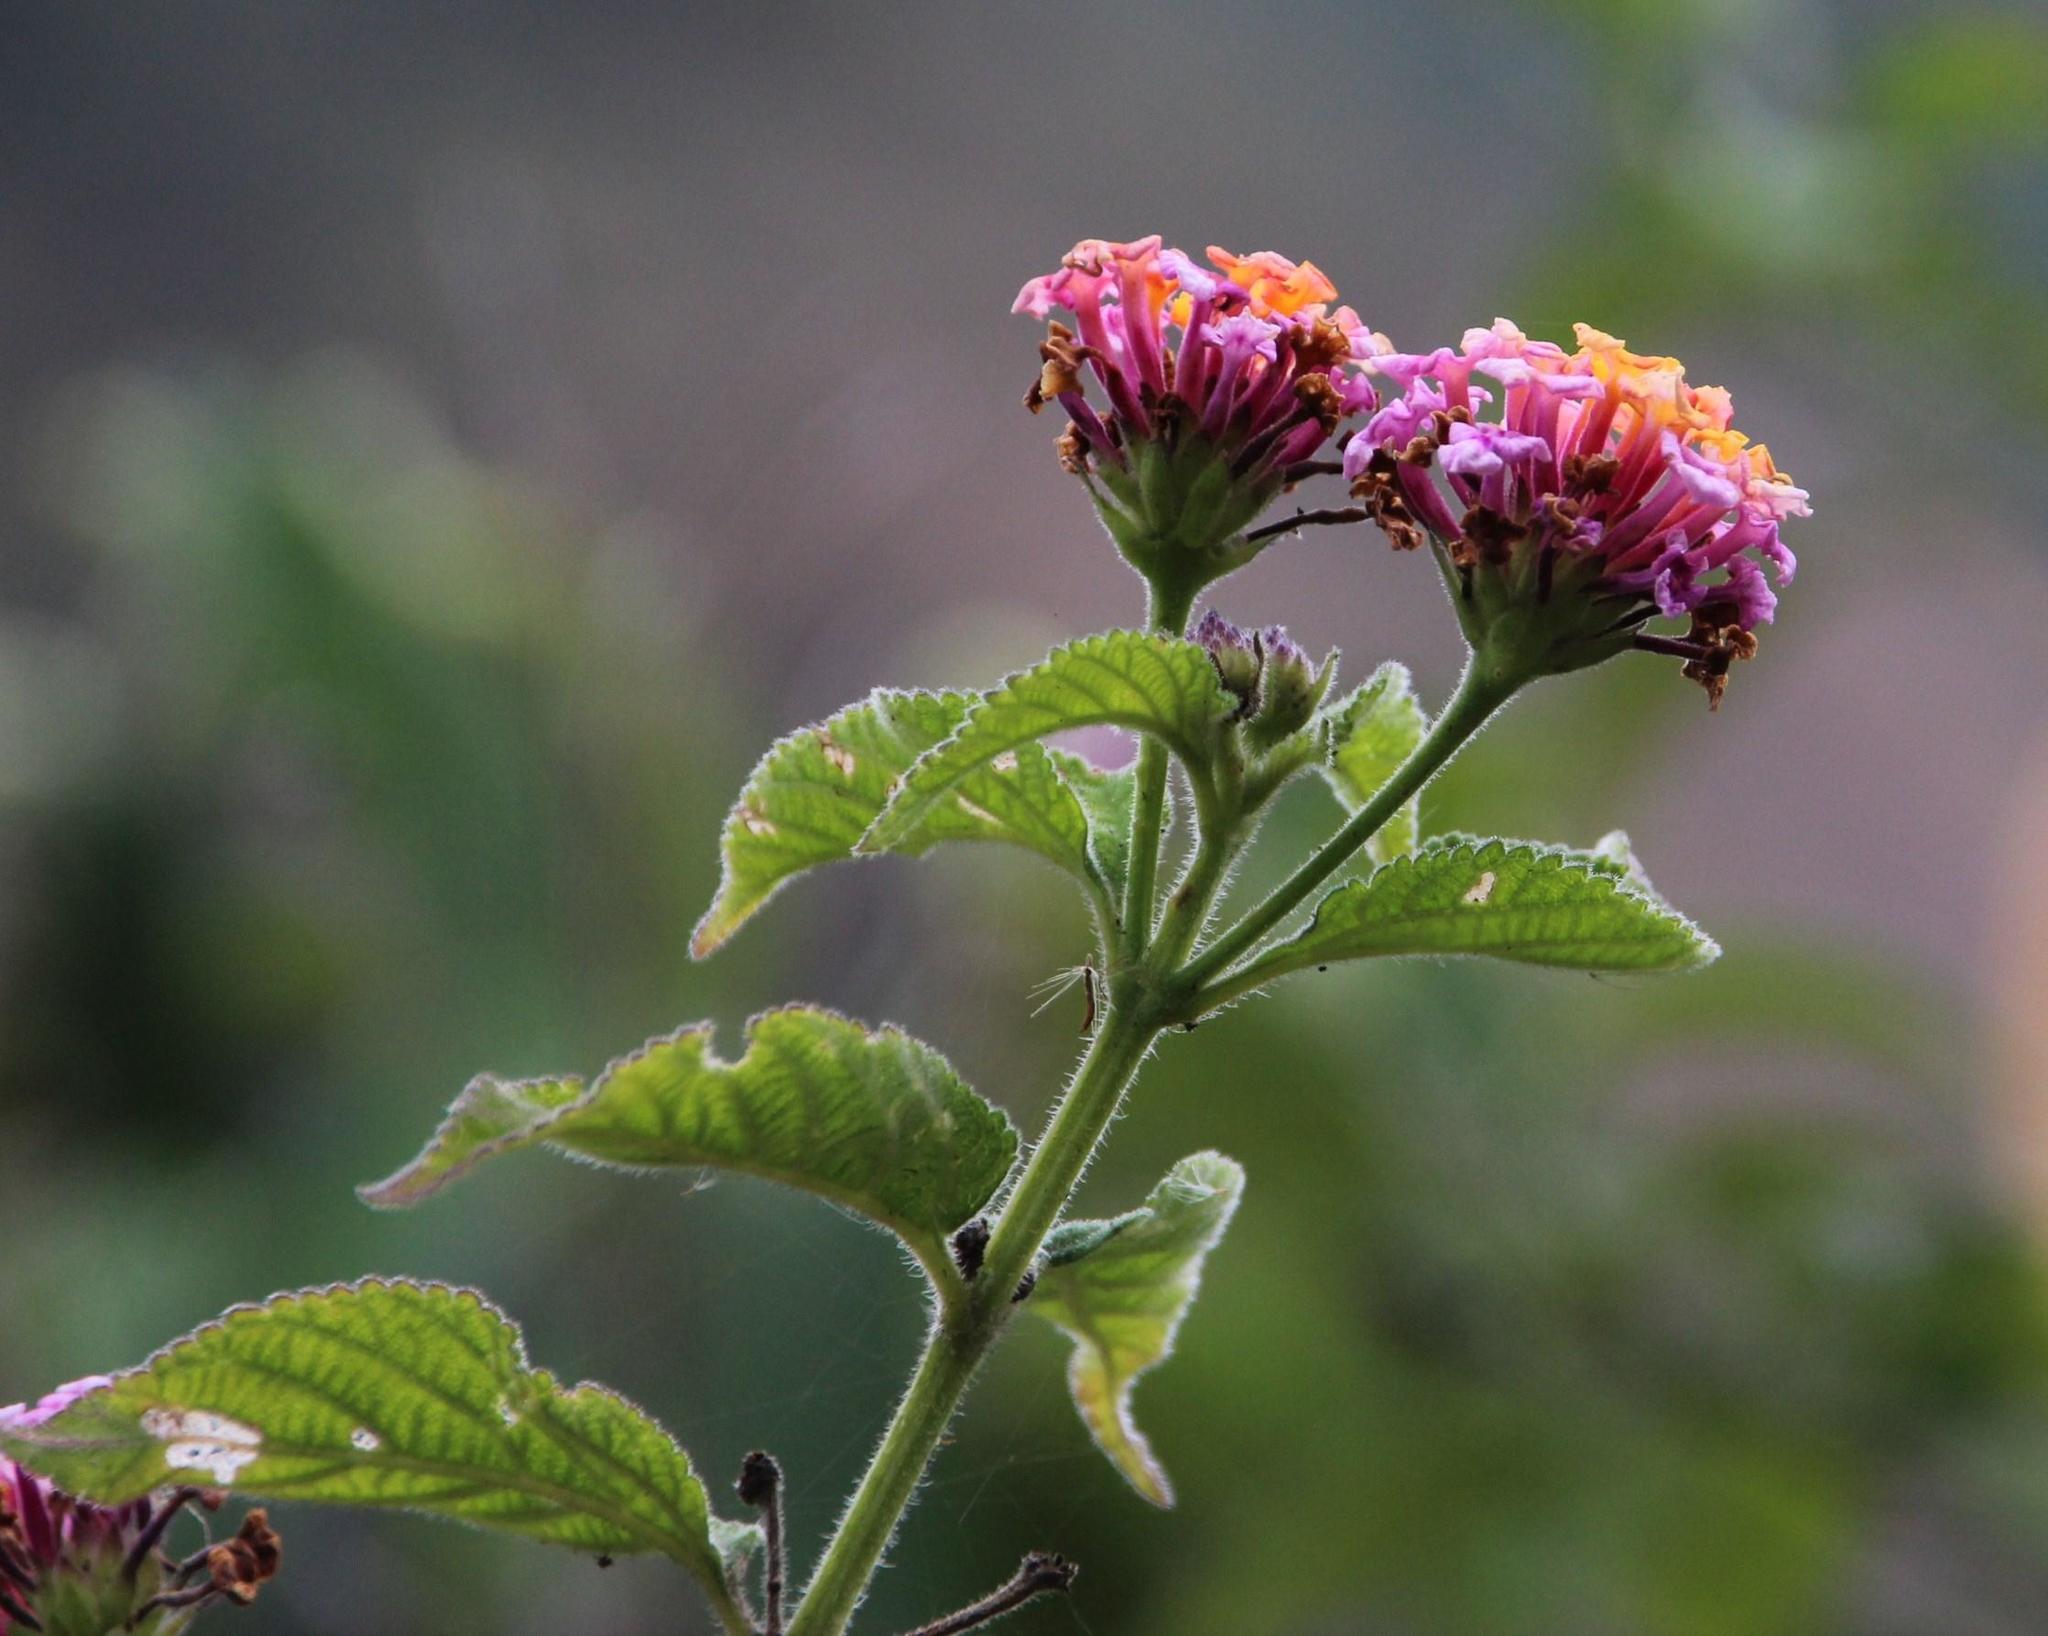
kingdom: Plantae
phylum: Tracheophyta
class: Magnoliopsida
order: Lamiales
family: Verbenaceae
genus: Lantana
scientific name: Lantana camara
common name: Lantana
